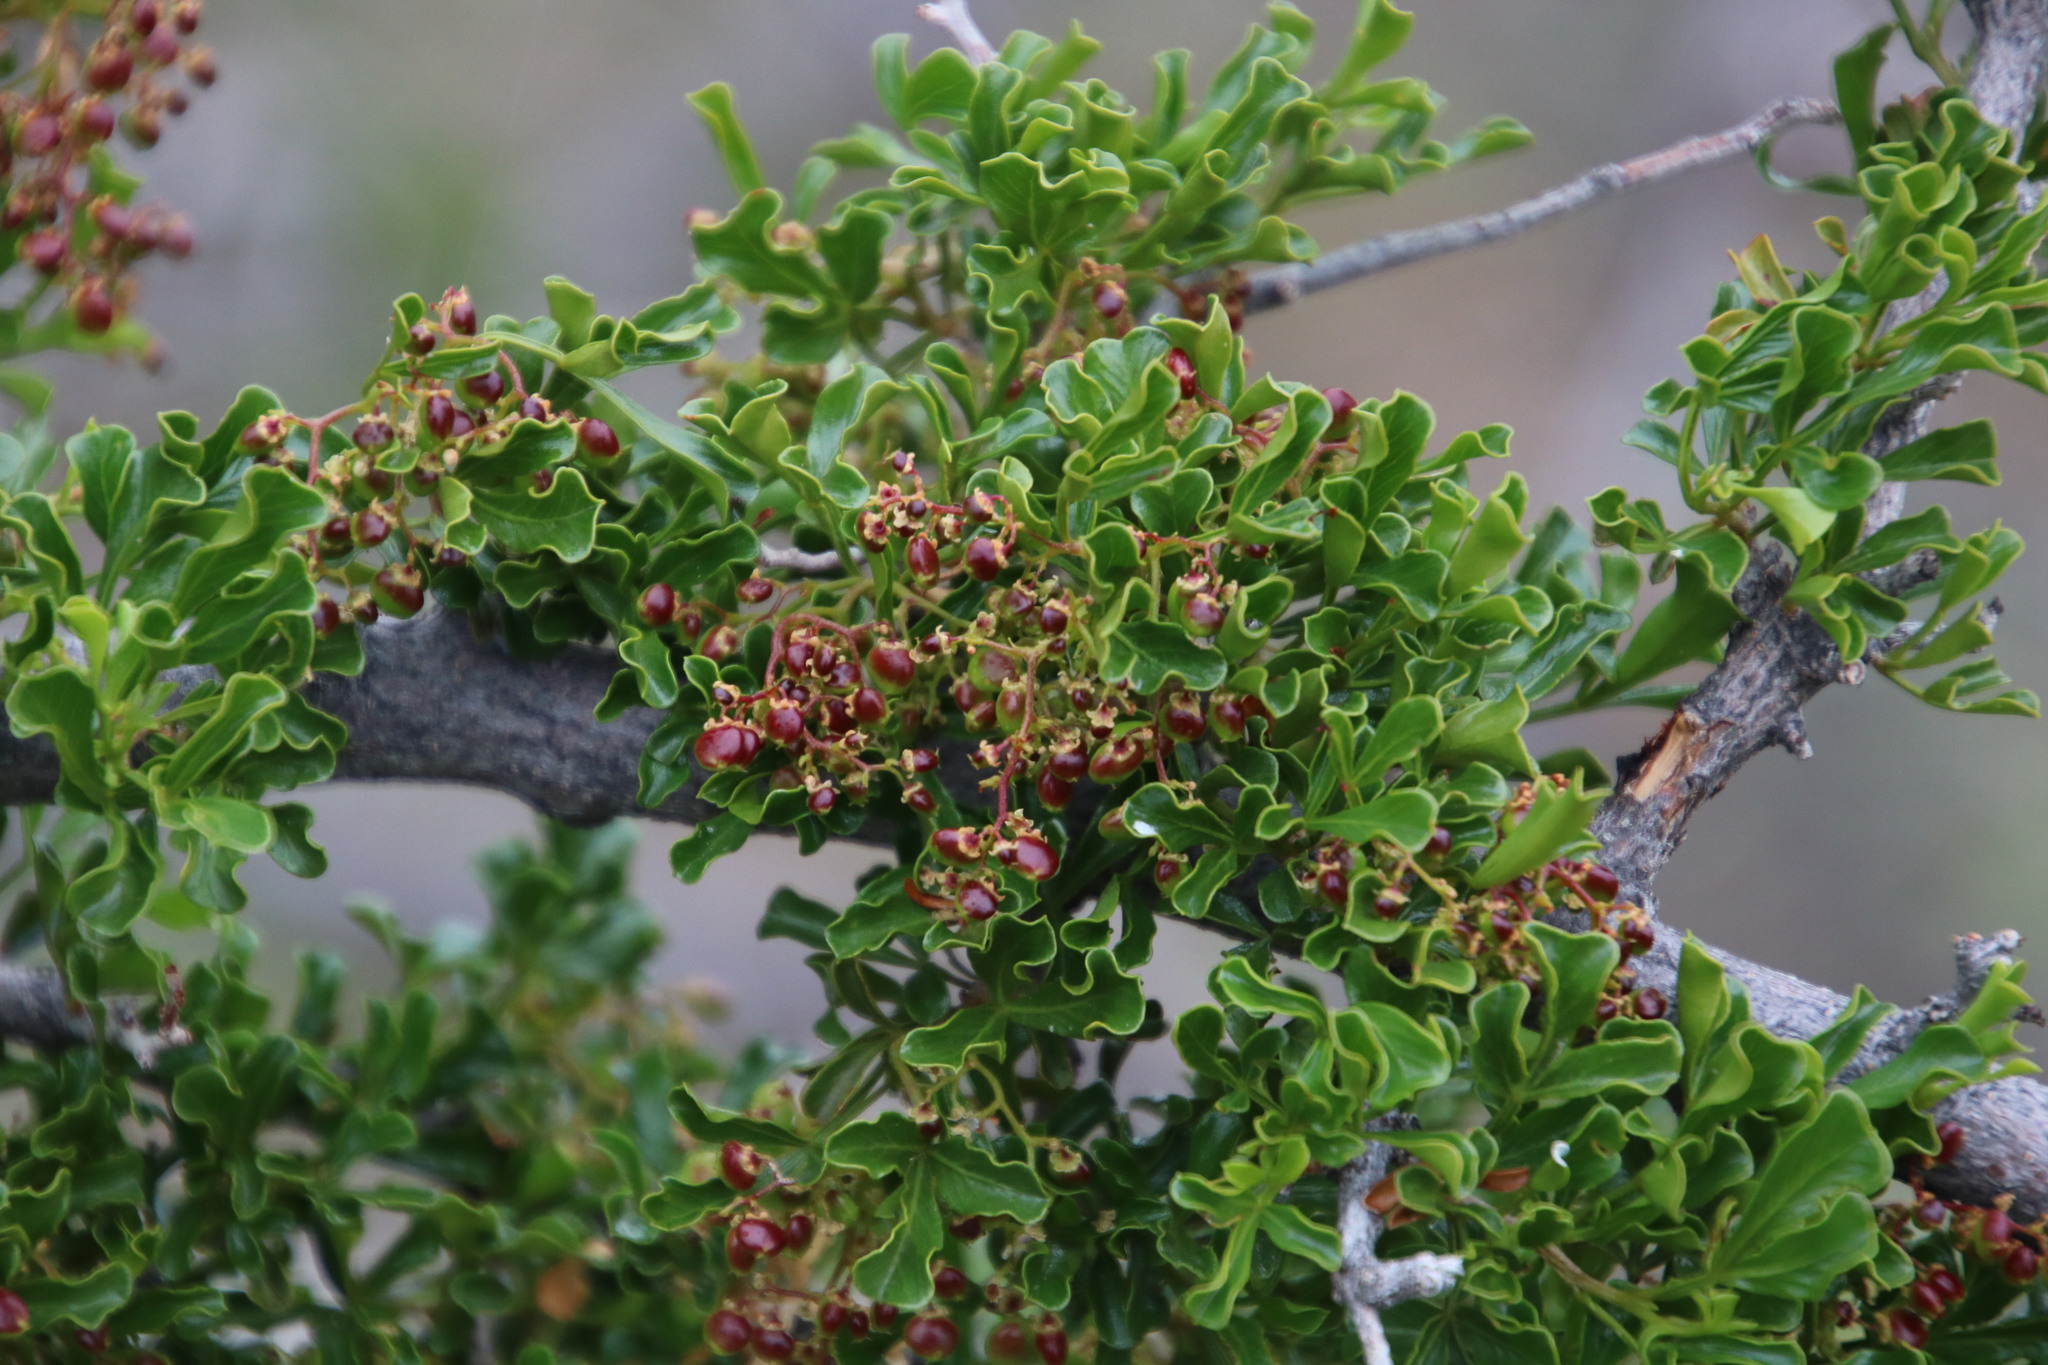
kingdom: Plantae
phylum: Tracheophyta
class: Magnoliopsida
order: Sapindales
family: Anacardiaceae
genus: Searsia
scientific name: Searsia burchellii
